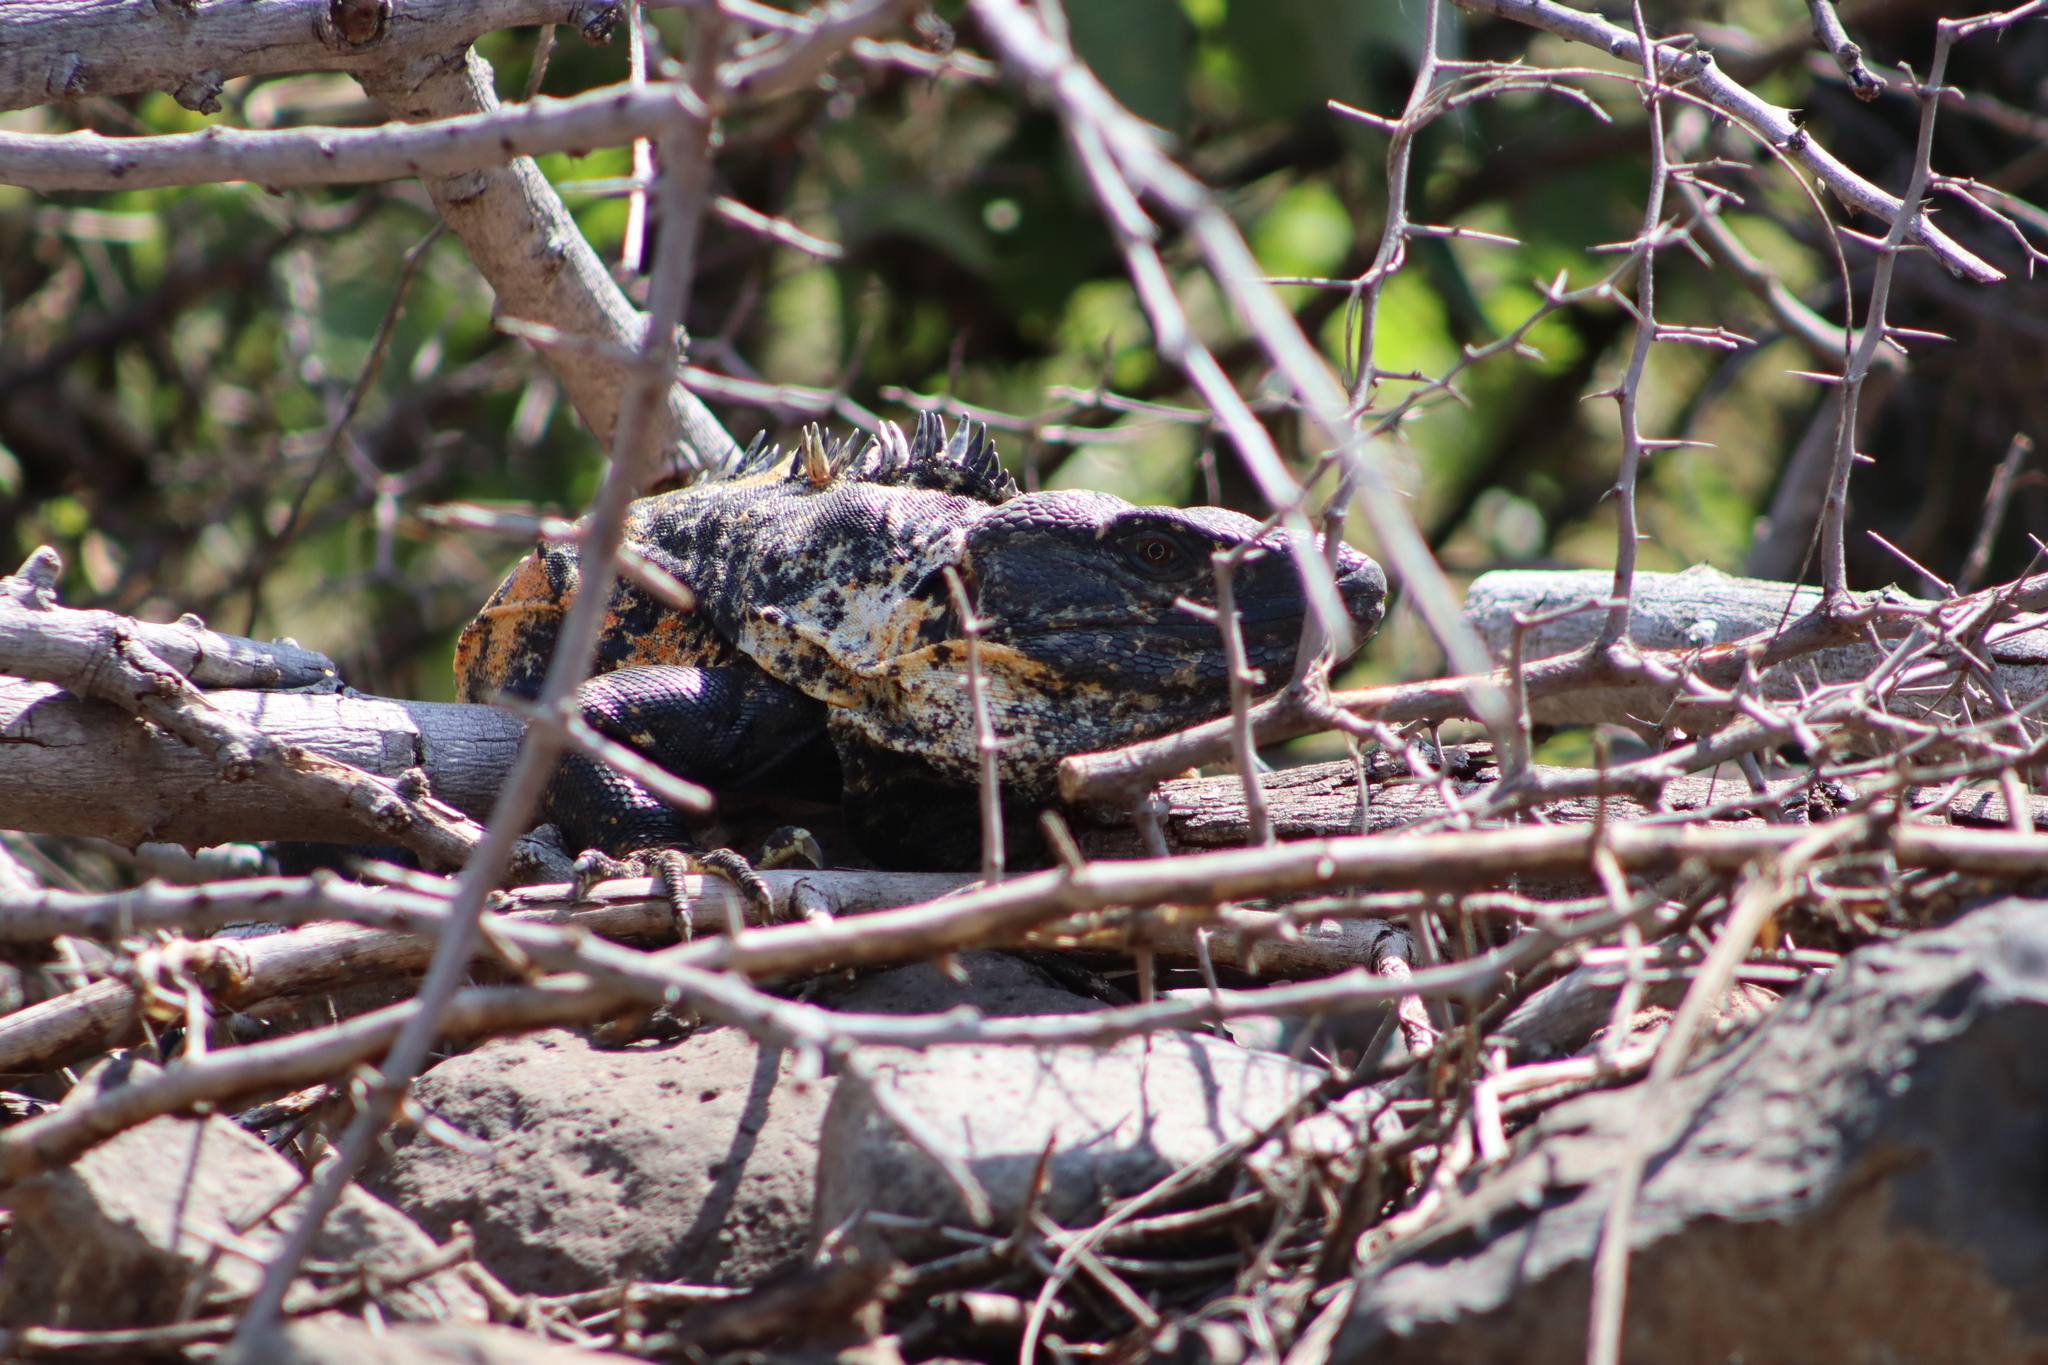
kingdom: Animalia
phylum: Chordata
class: Squamata
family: Iguanidae
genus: Ctenosaura
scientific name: Ctenosaura pectinata
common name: Guerreran spiny-tailed iguana
